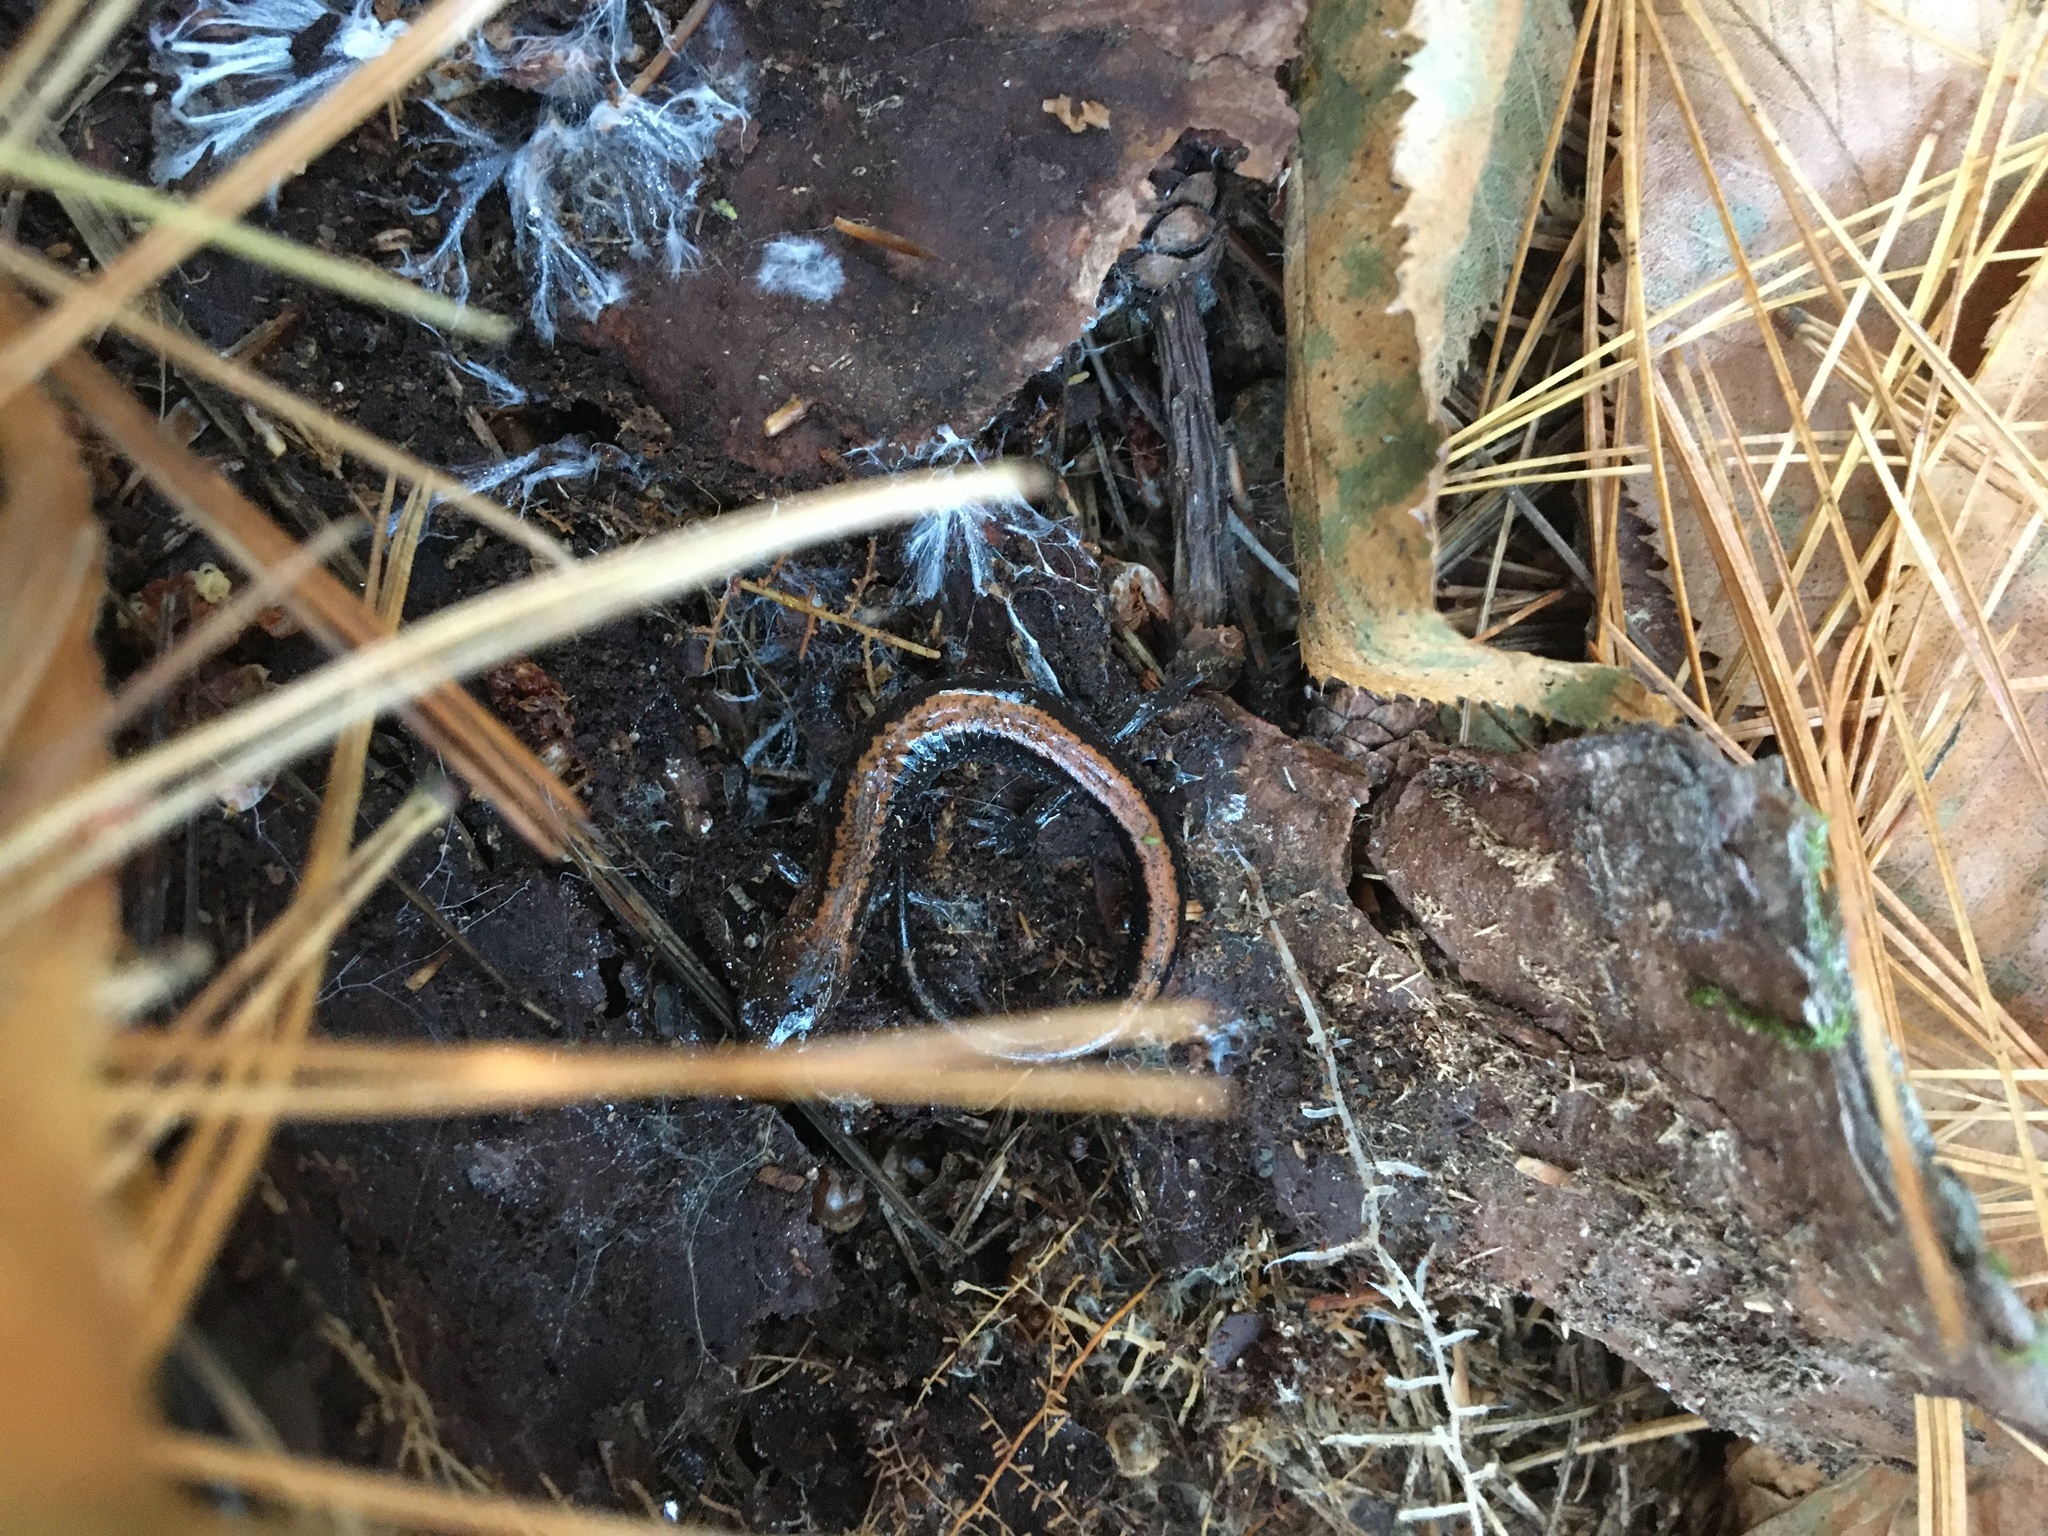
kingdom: Animalia
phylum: Chordata
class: Amphibia
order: Caudata
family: Plethodontidae
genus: Plethodon
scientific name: Plethodon cinereus
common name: Redback salamander
